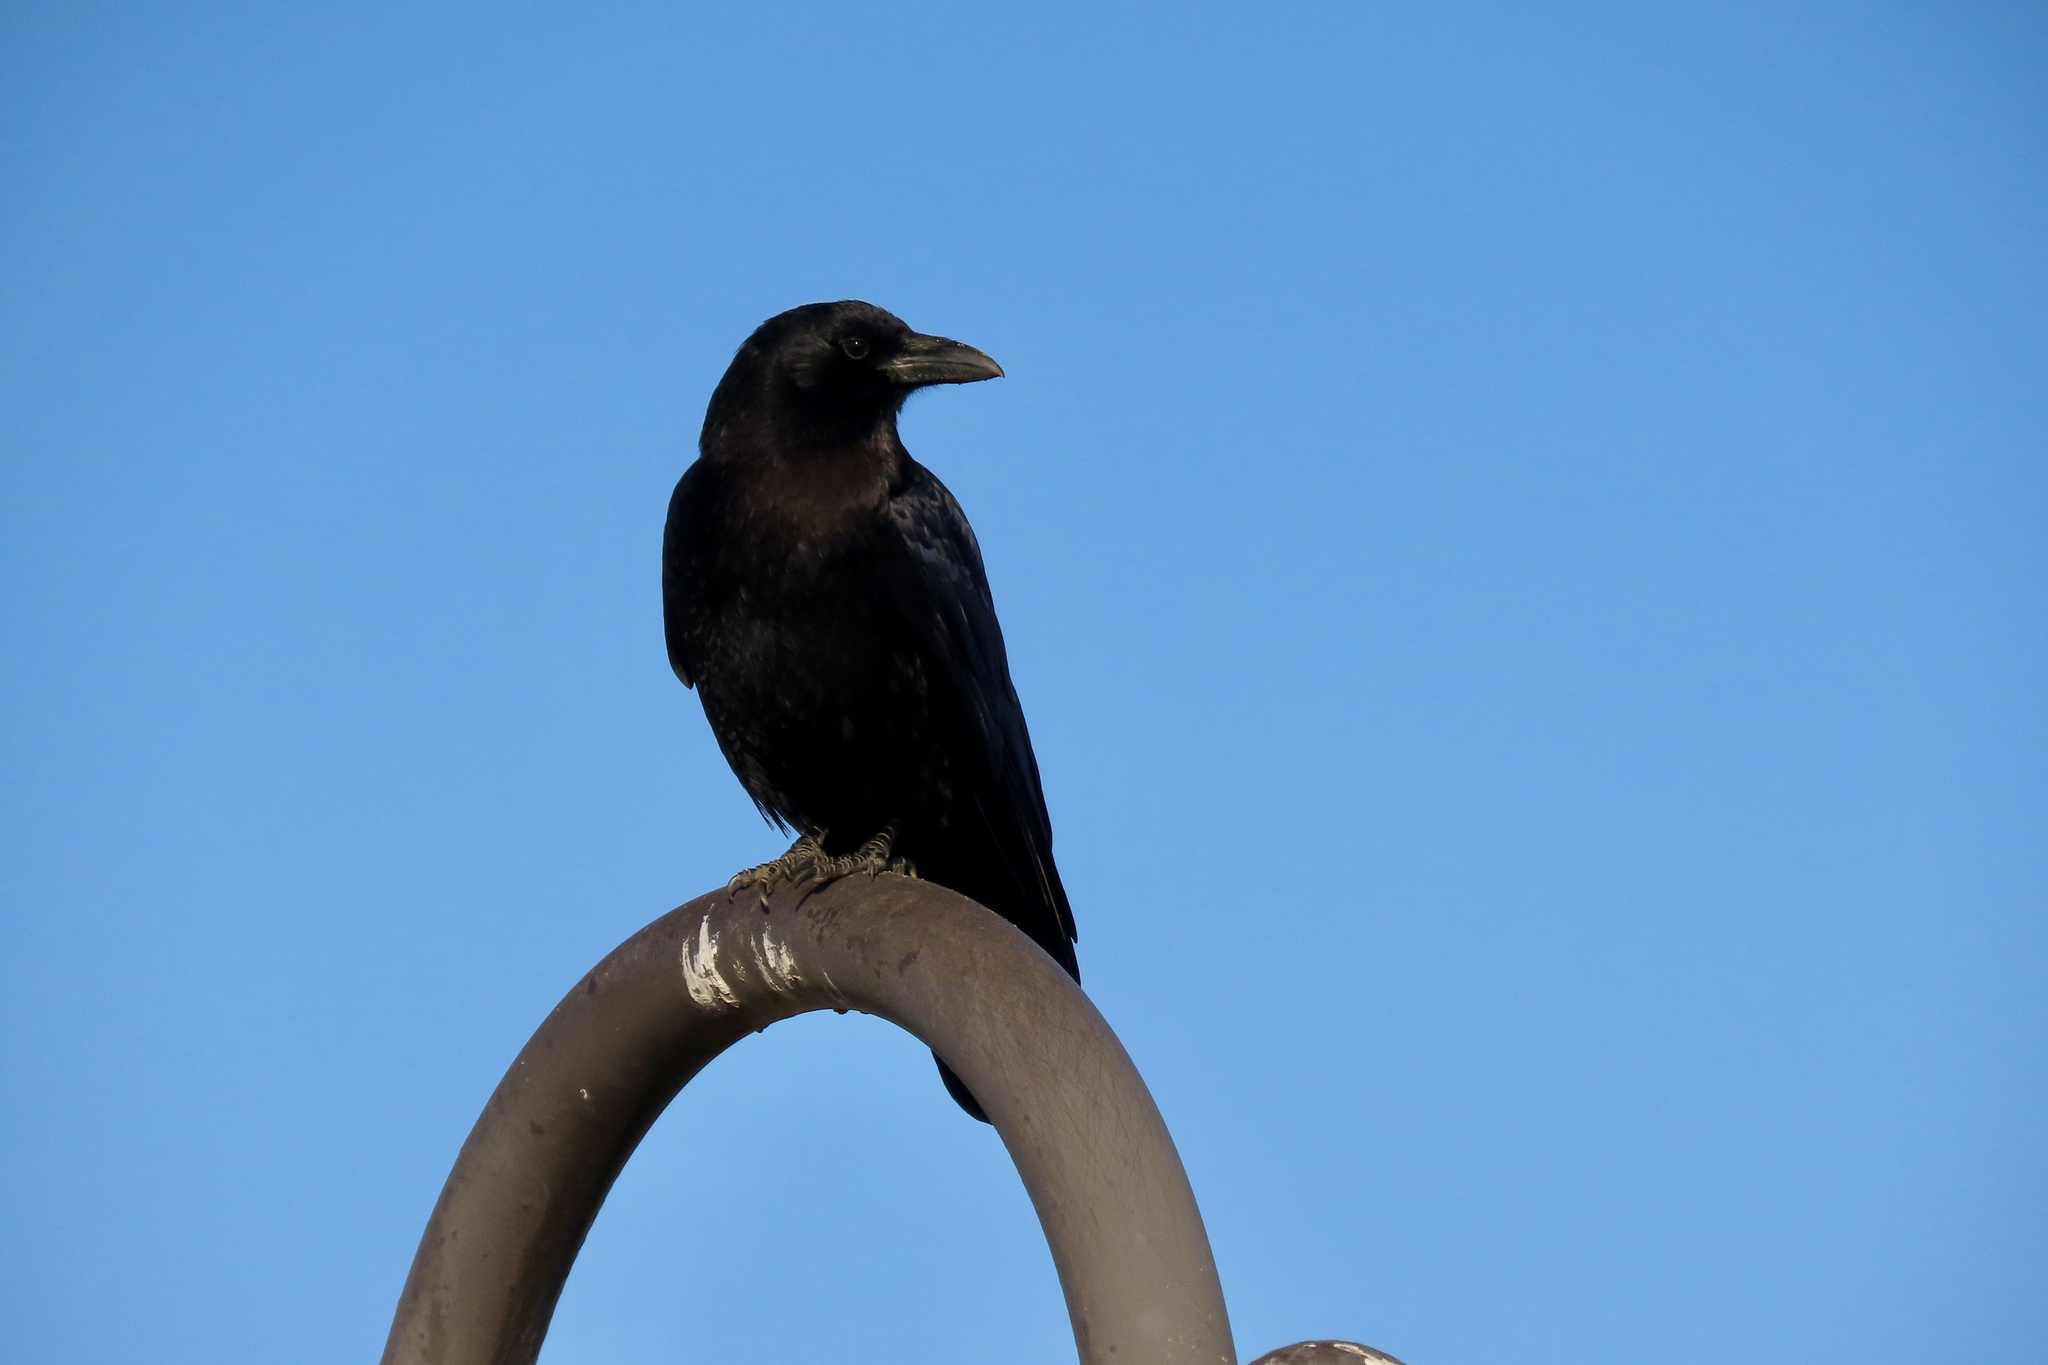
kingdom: Animalia
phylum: Chordata
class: Aves
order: Passeriformes
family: Corvidae
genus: Corvus
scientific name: Corvus brachyrhynchos
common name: American crow
